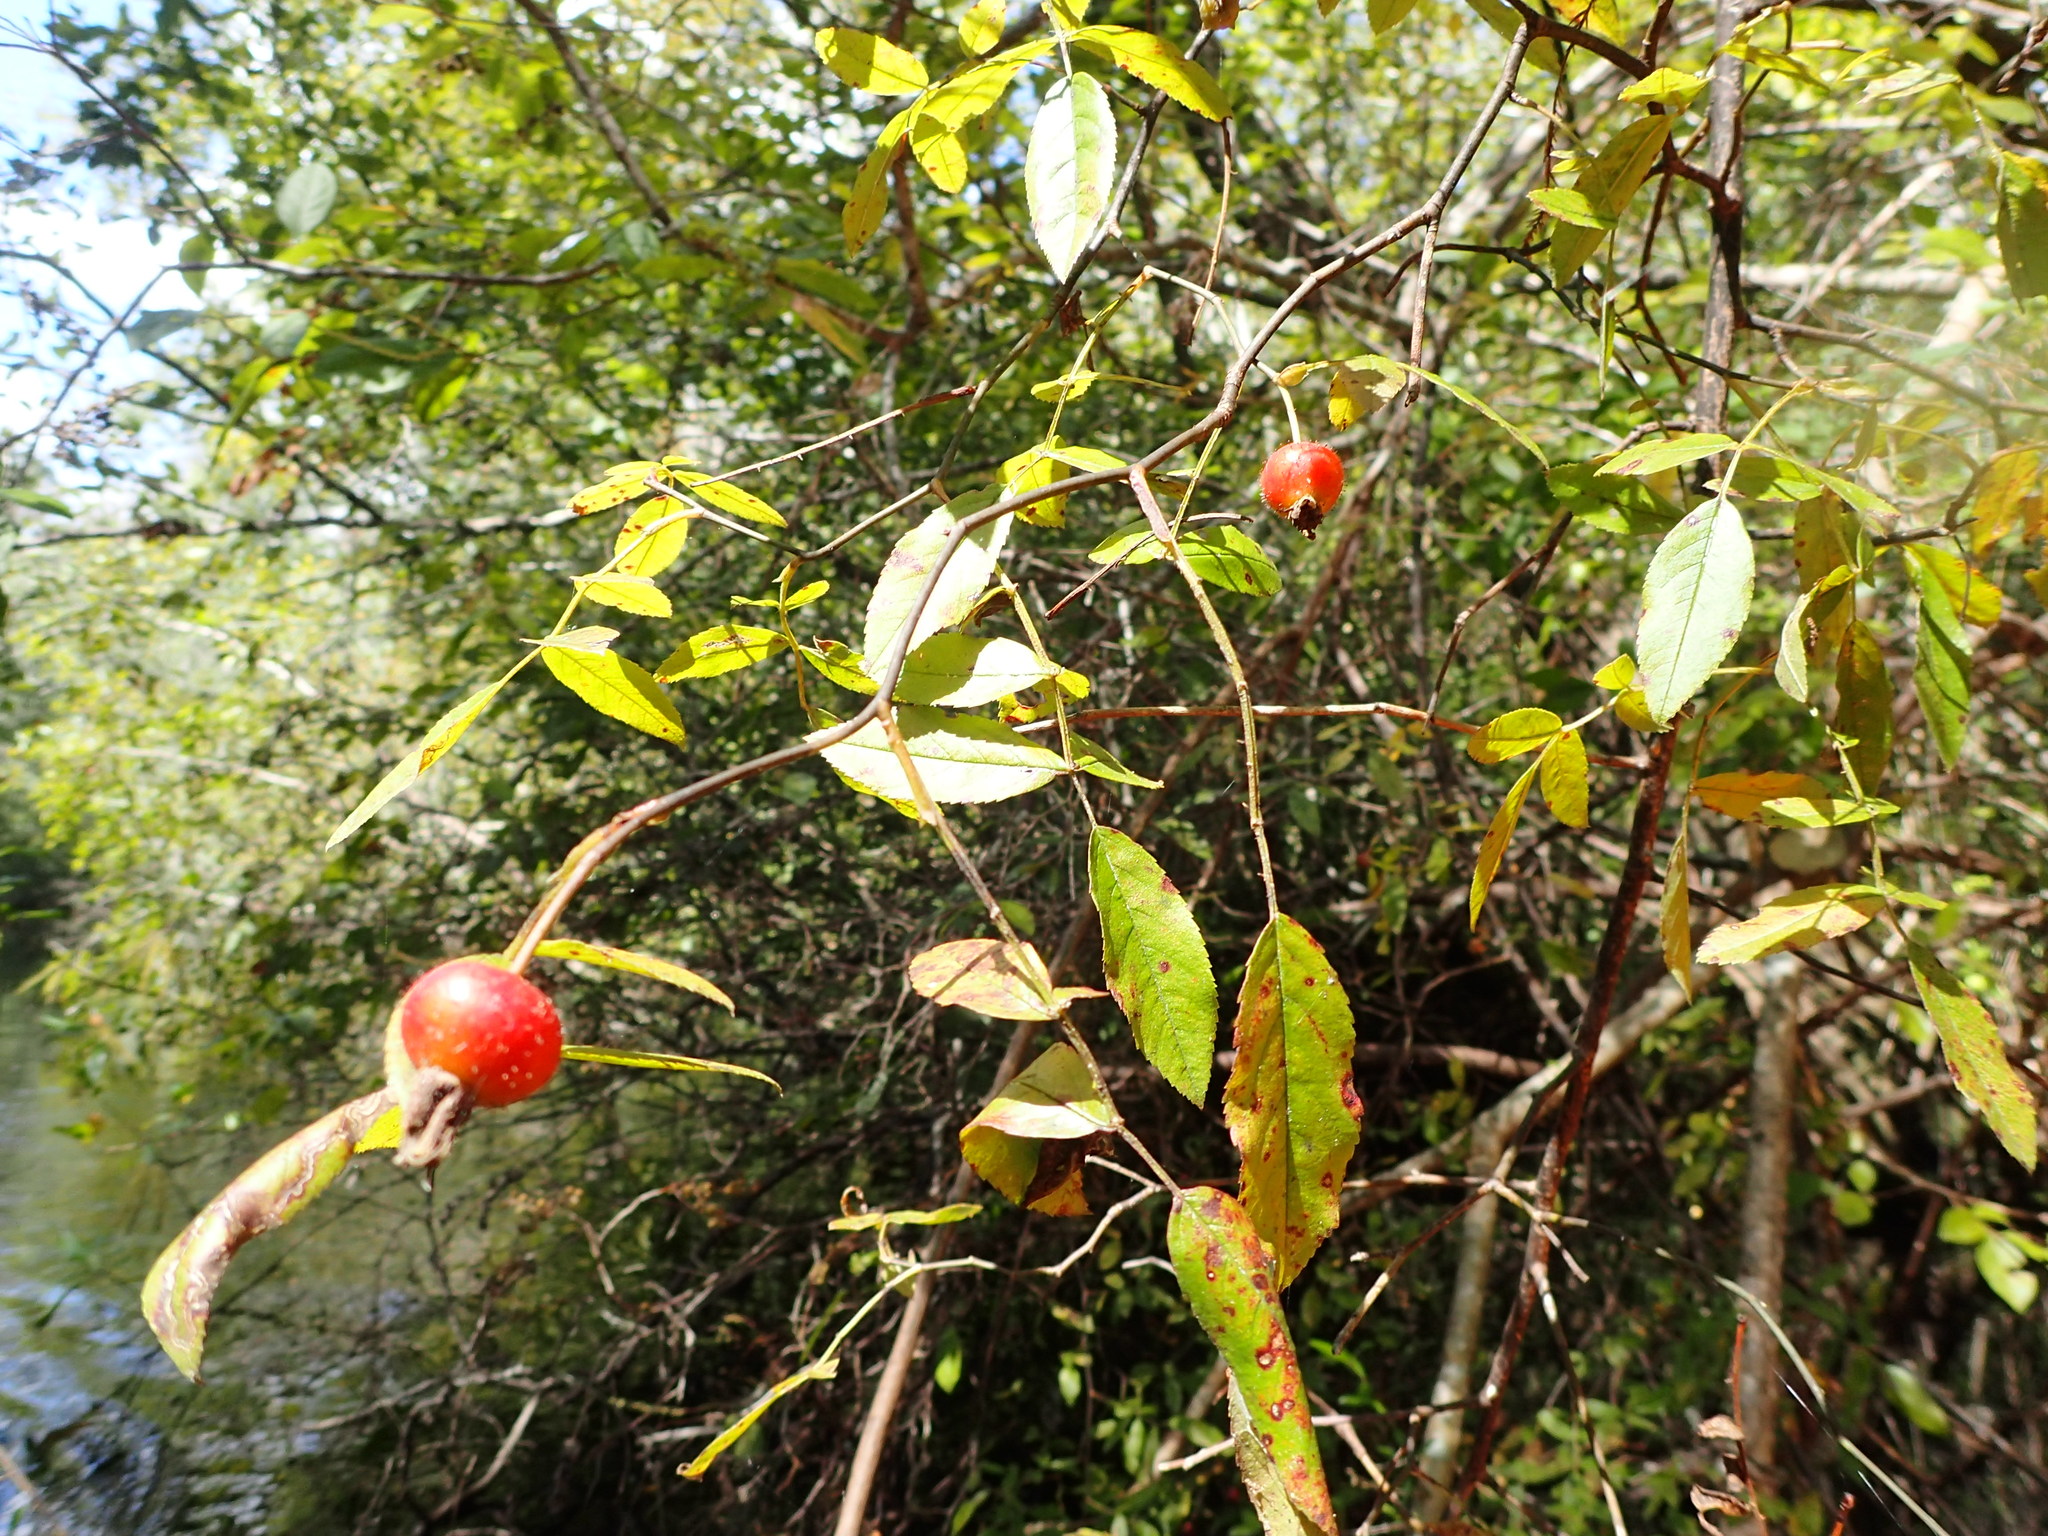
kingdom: Plantae
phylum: Tracheophyta
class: Magnoliopsida
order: Rosales
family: Rosaceae
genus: Rosa
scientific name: Rosa palustris
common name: Swamp rose
